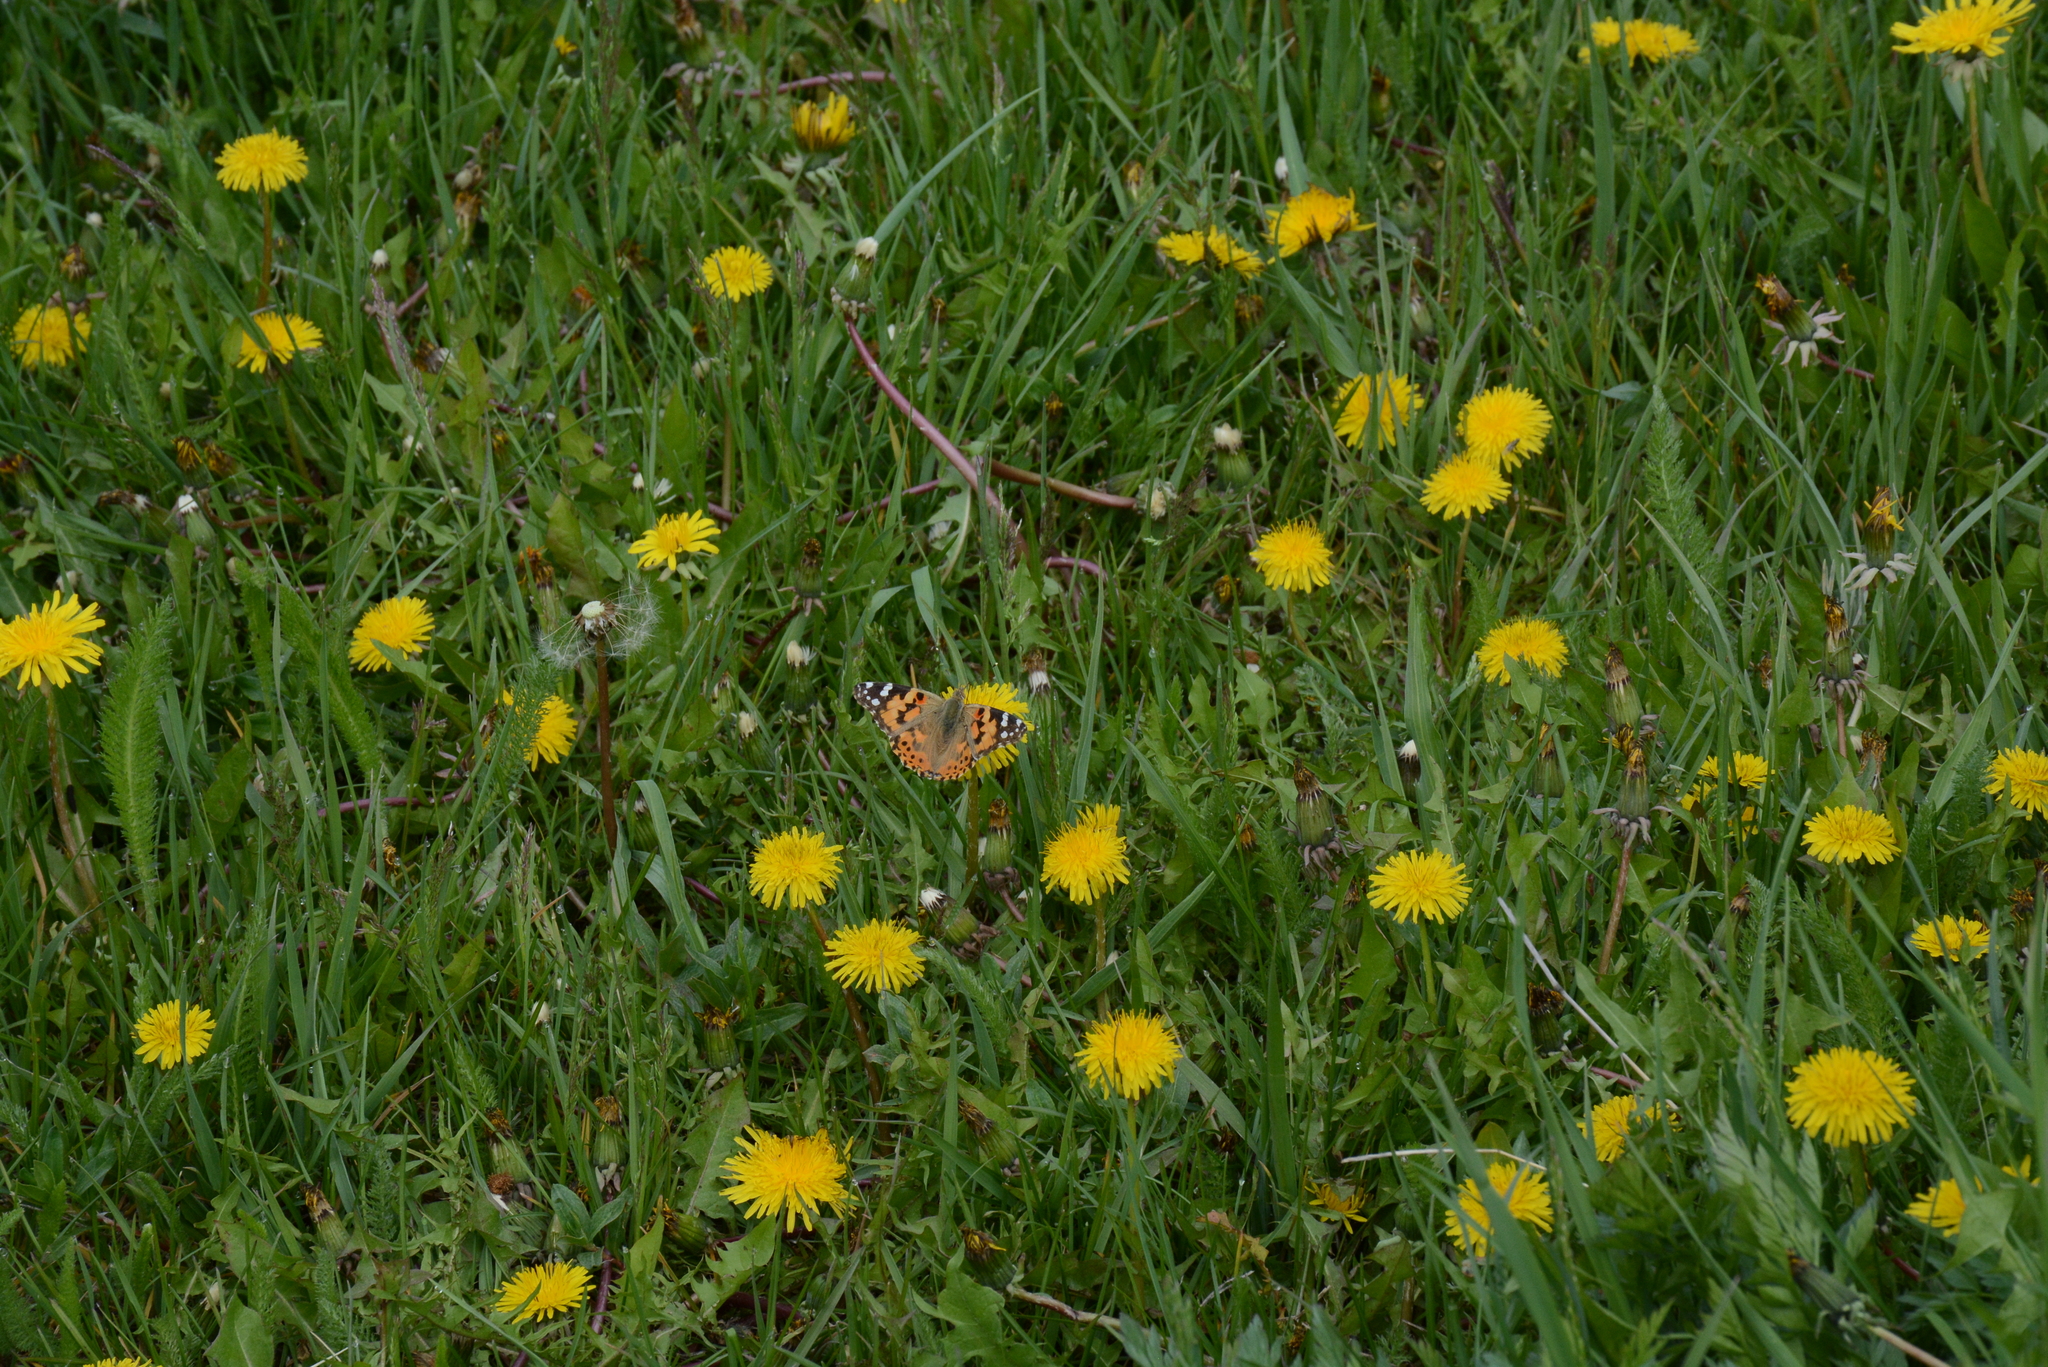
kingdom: Animalia
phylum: Arthropoda
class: Insecta
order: Lepidoptera
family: Nymphalidae
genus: Vanessa
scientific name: Vanessa cardui
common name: Painted lady
